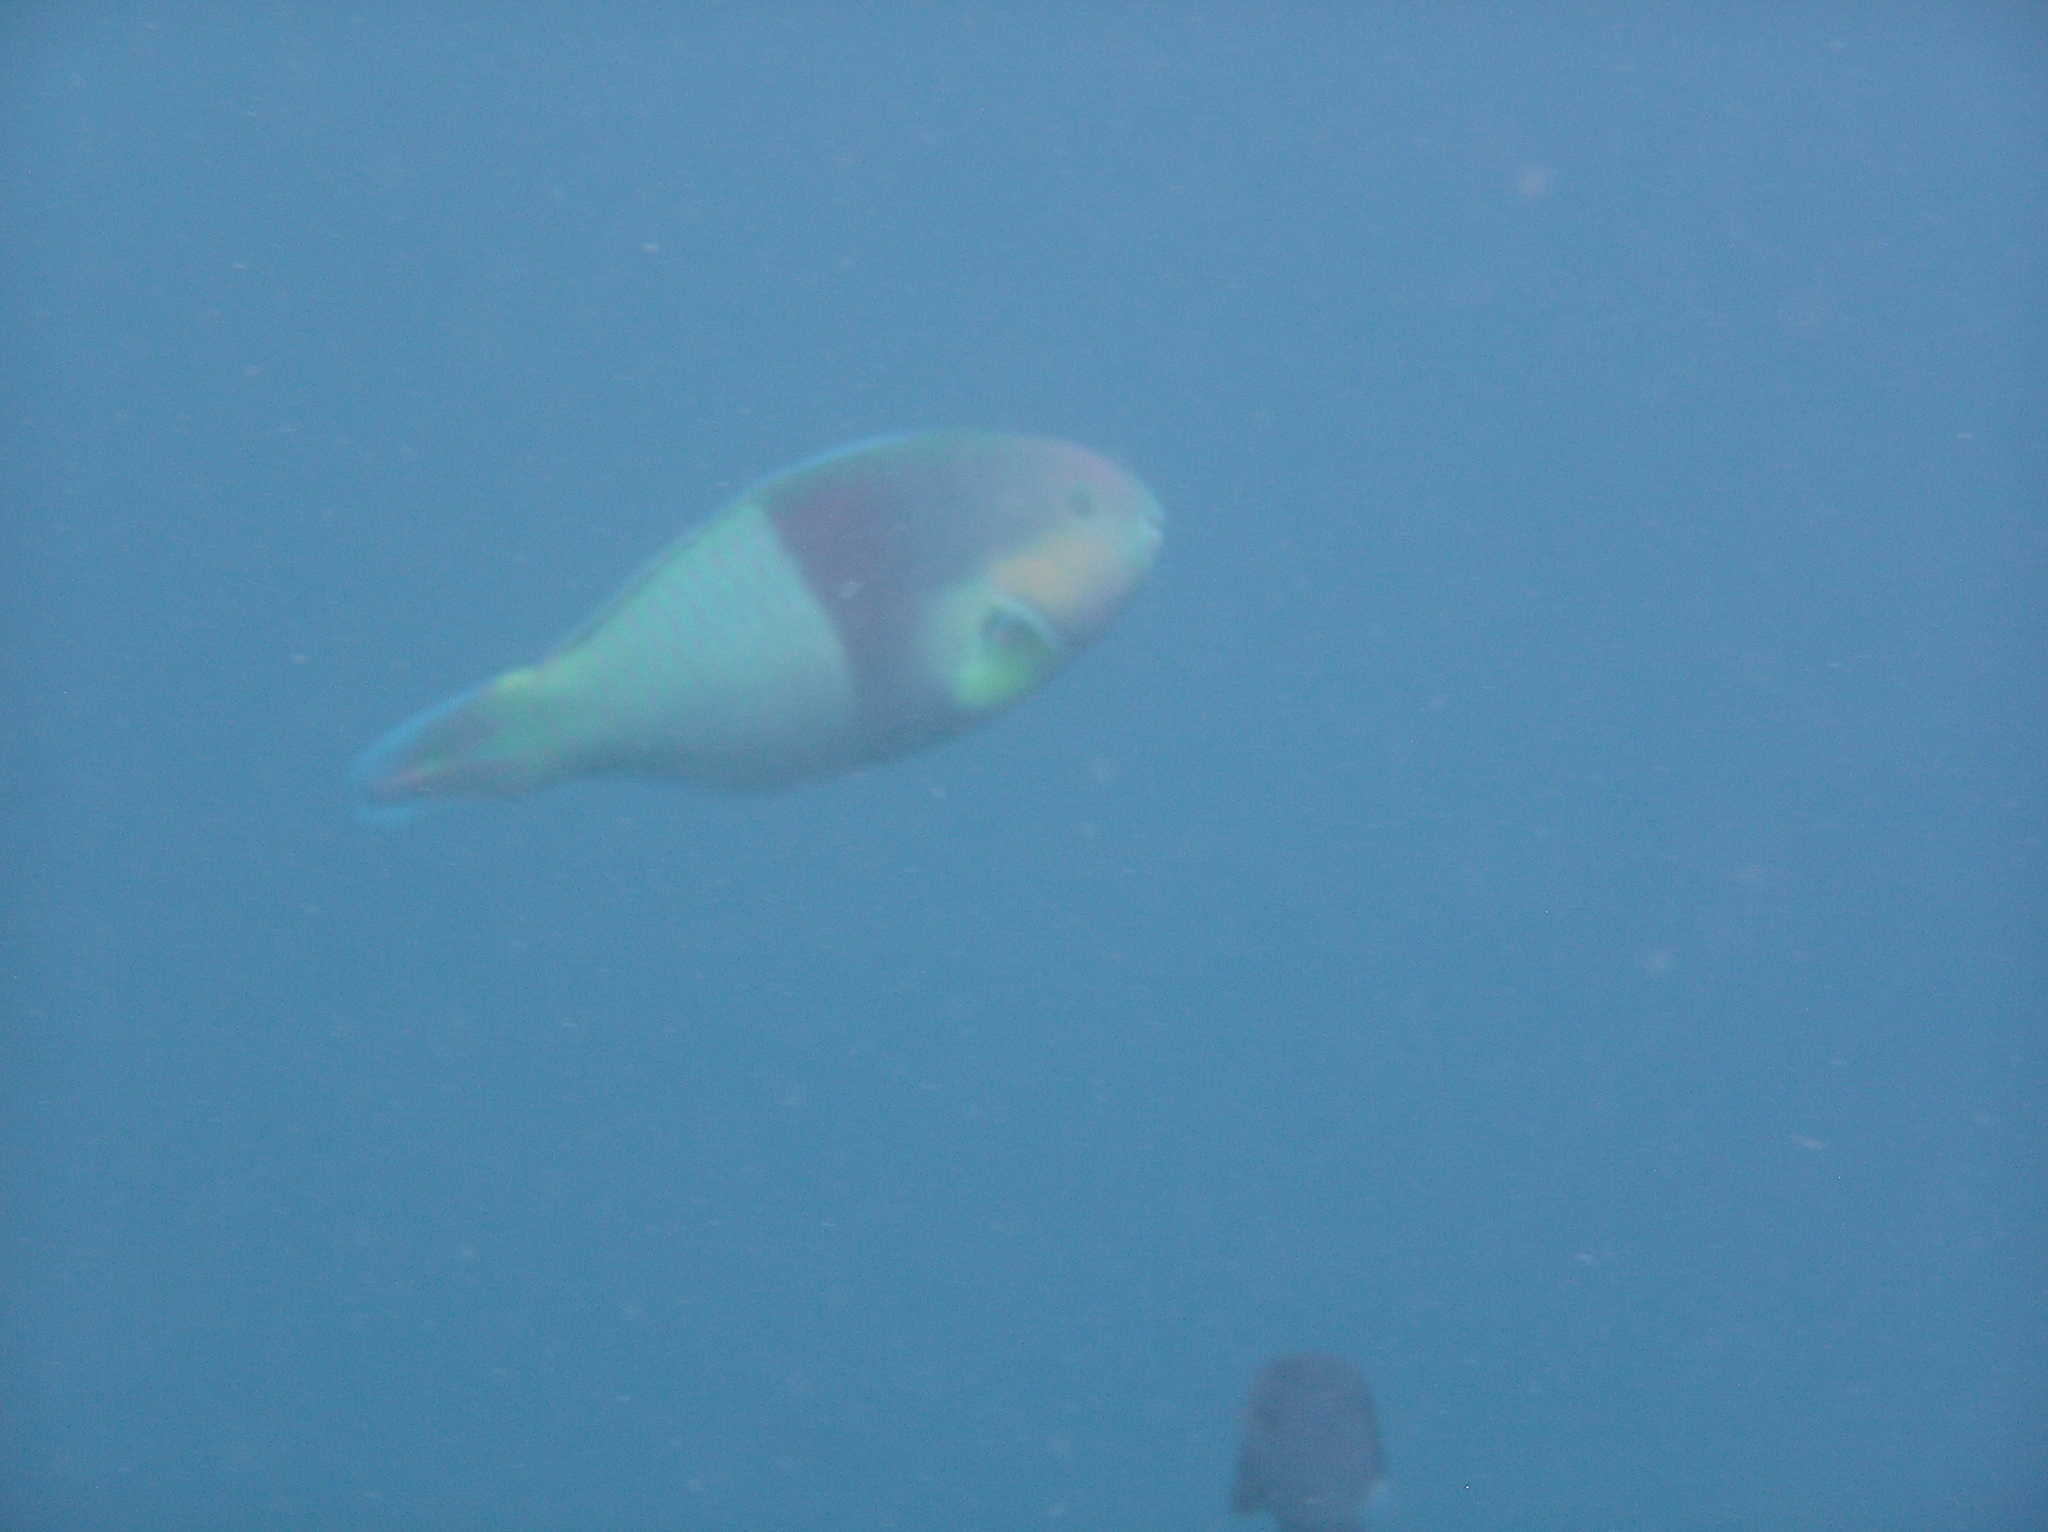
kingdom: Animalia
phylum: Chordata
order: Perciformes
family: Scaridae
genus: Scarus
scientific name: Scarus rivulatus
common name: Surf parrotfish
